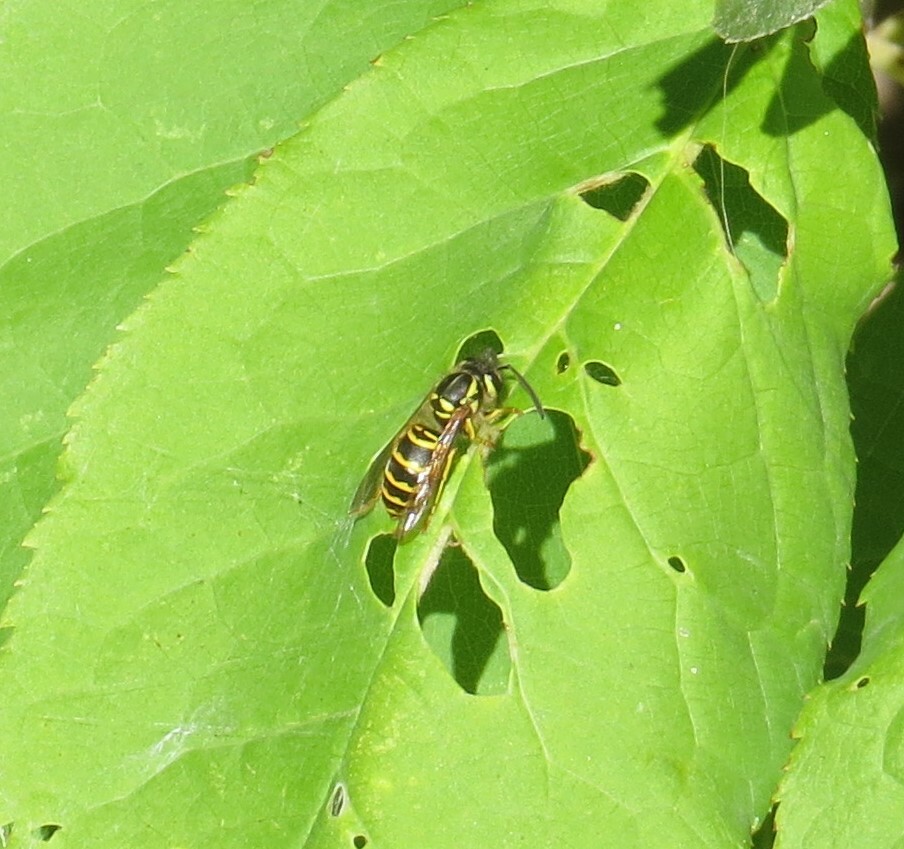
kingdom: Animalia
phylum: Arthropoda
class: Insecta
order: Hymenoptera
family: Vespidae
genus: Vespula
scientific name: Vespula maculifrons
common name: Eastern yellowjacket
